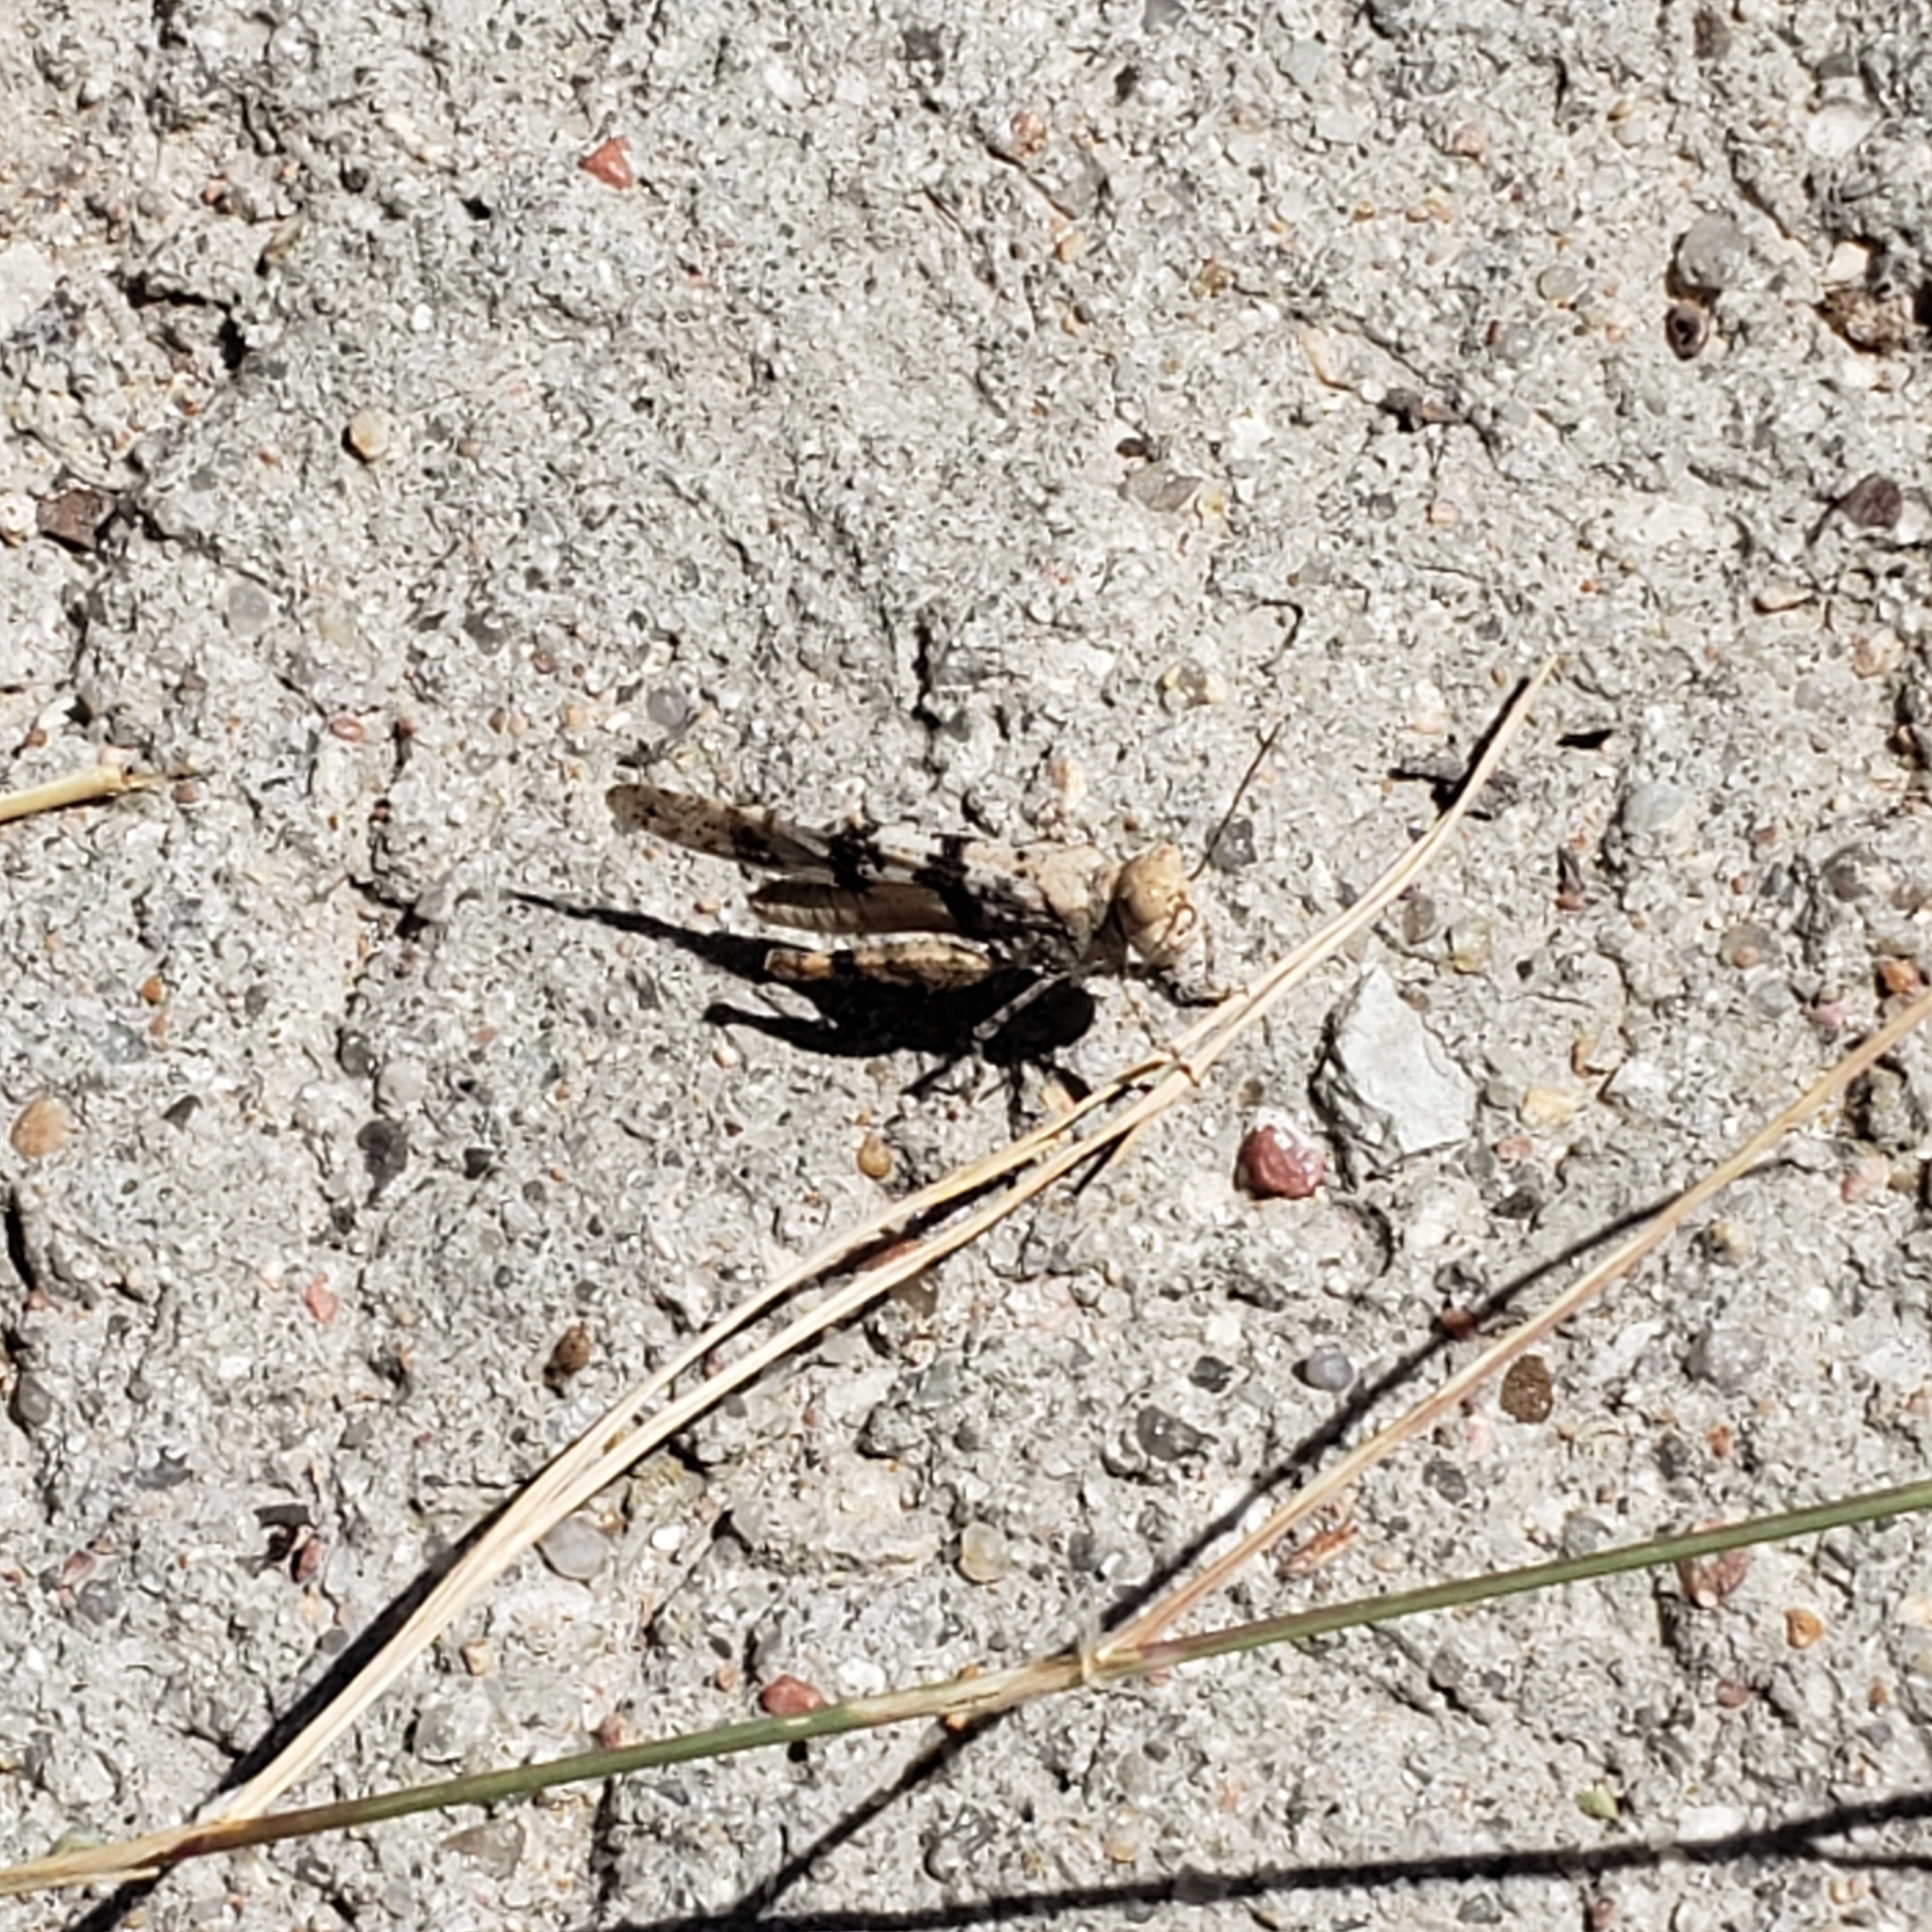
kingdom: Animalia
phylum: Arthropoda
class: Insecta
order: Orthoptera
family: Acrididae
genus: Trimerotropis
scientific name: Trimerotropis saxatilis
